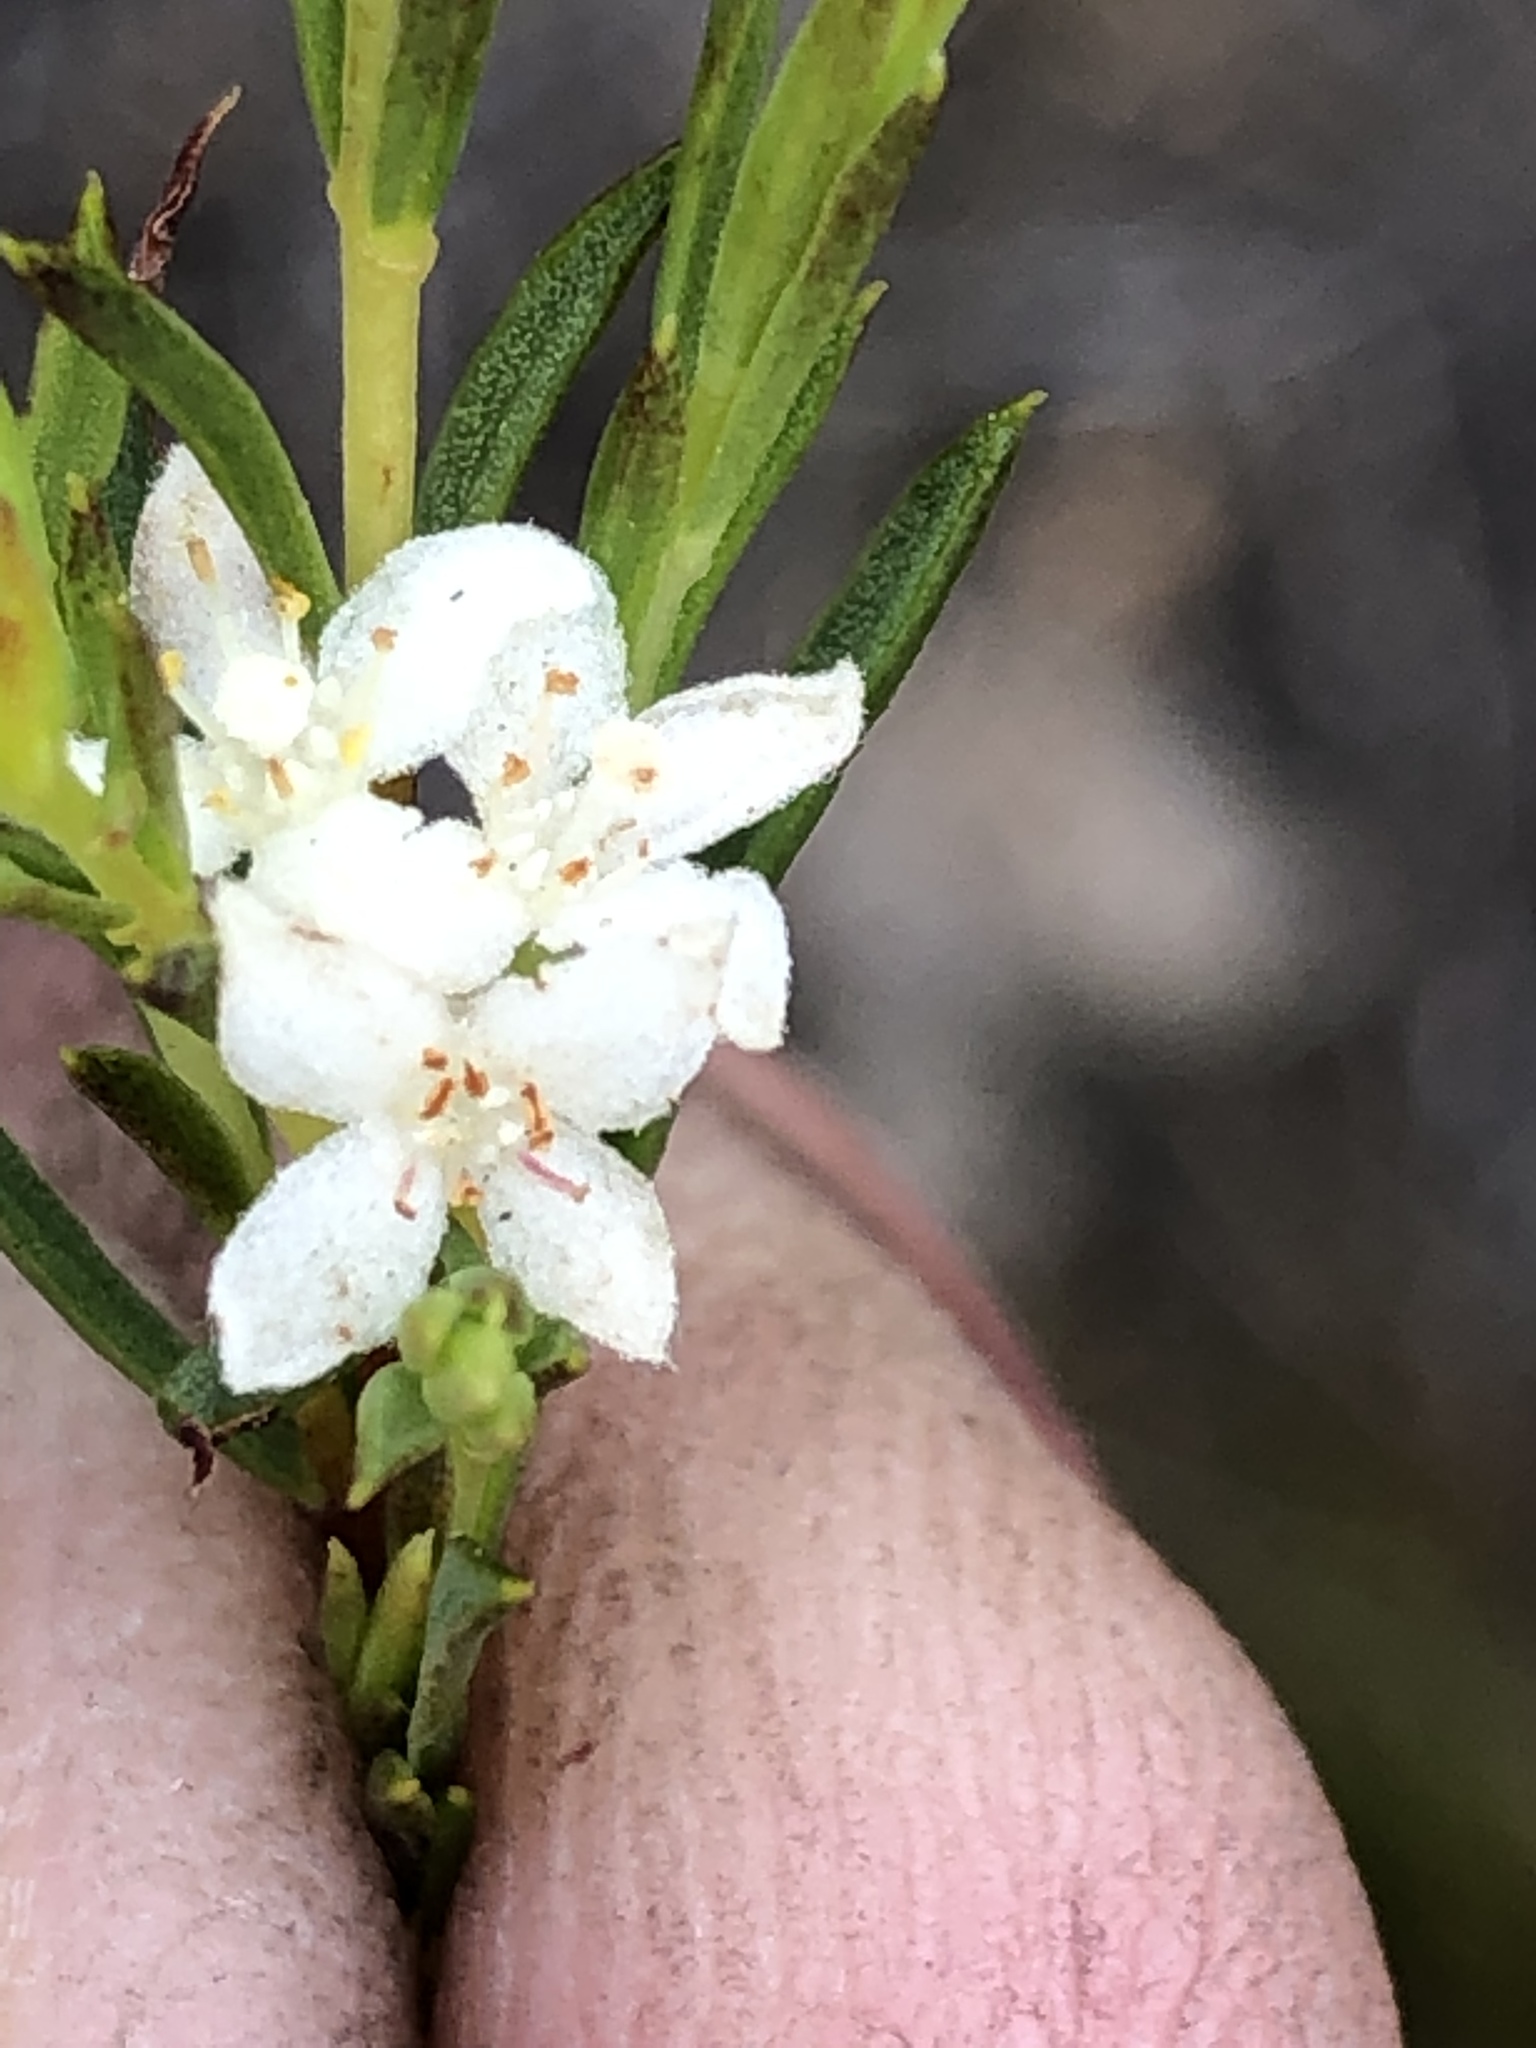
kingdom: Plantae
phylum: Tracheophyta
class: Magnoliopsida
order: Malvales
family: Thymelaeaceae
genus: Lachnaea
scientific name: Lachnaea diosmoides
